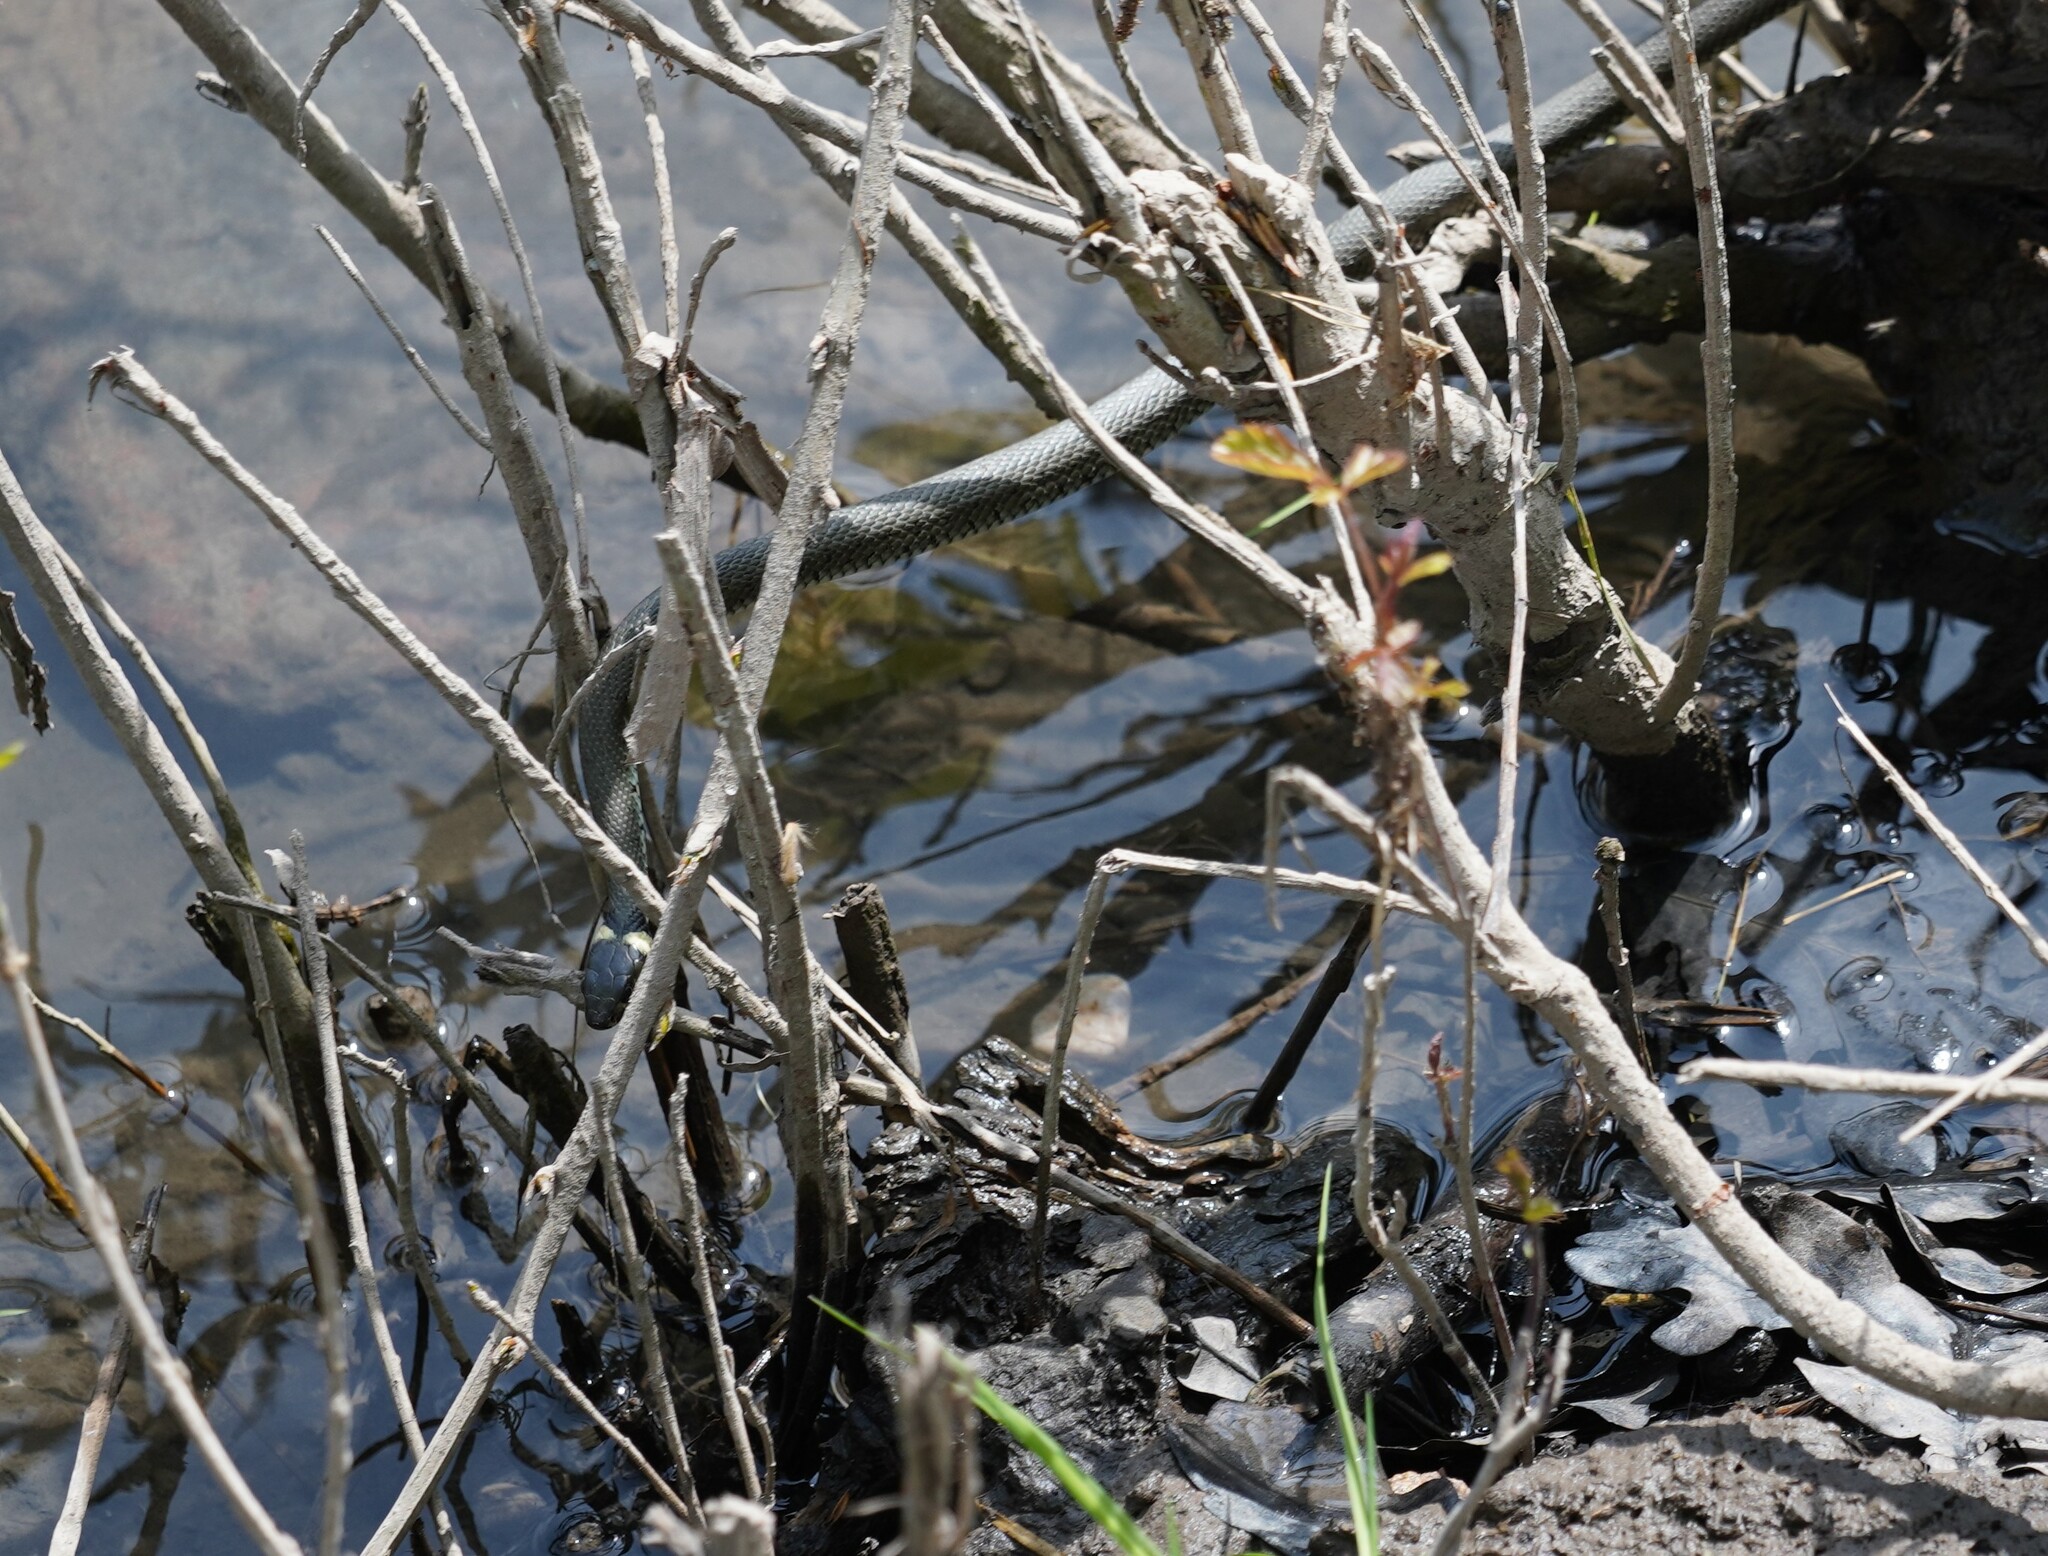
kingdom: Animalia
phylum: Chordata
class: Squamata
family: Colubridae
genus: Natrix
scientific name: Natrix natrix
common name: Grass snake
